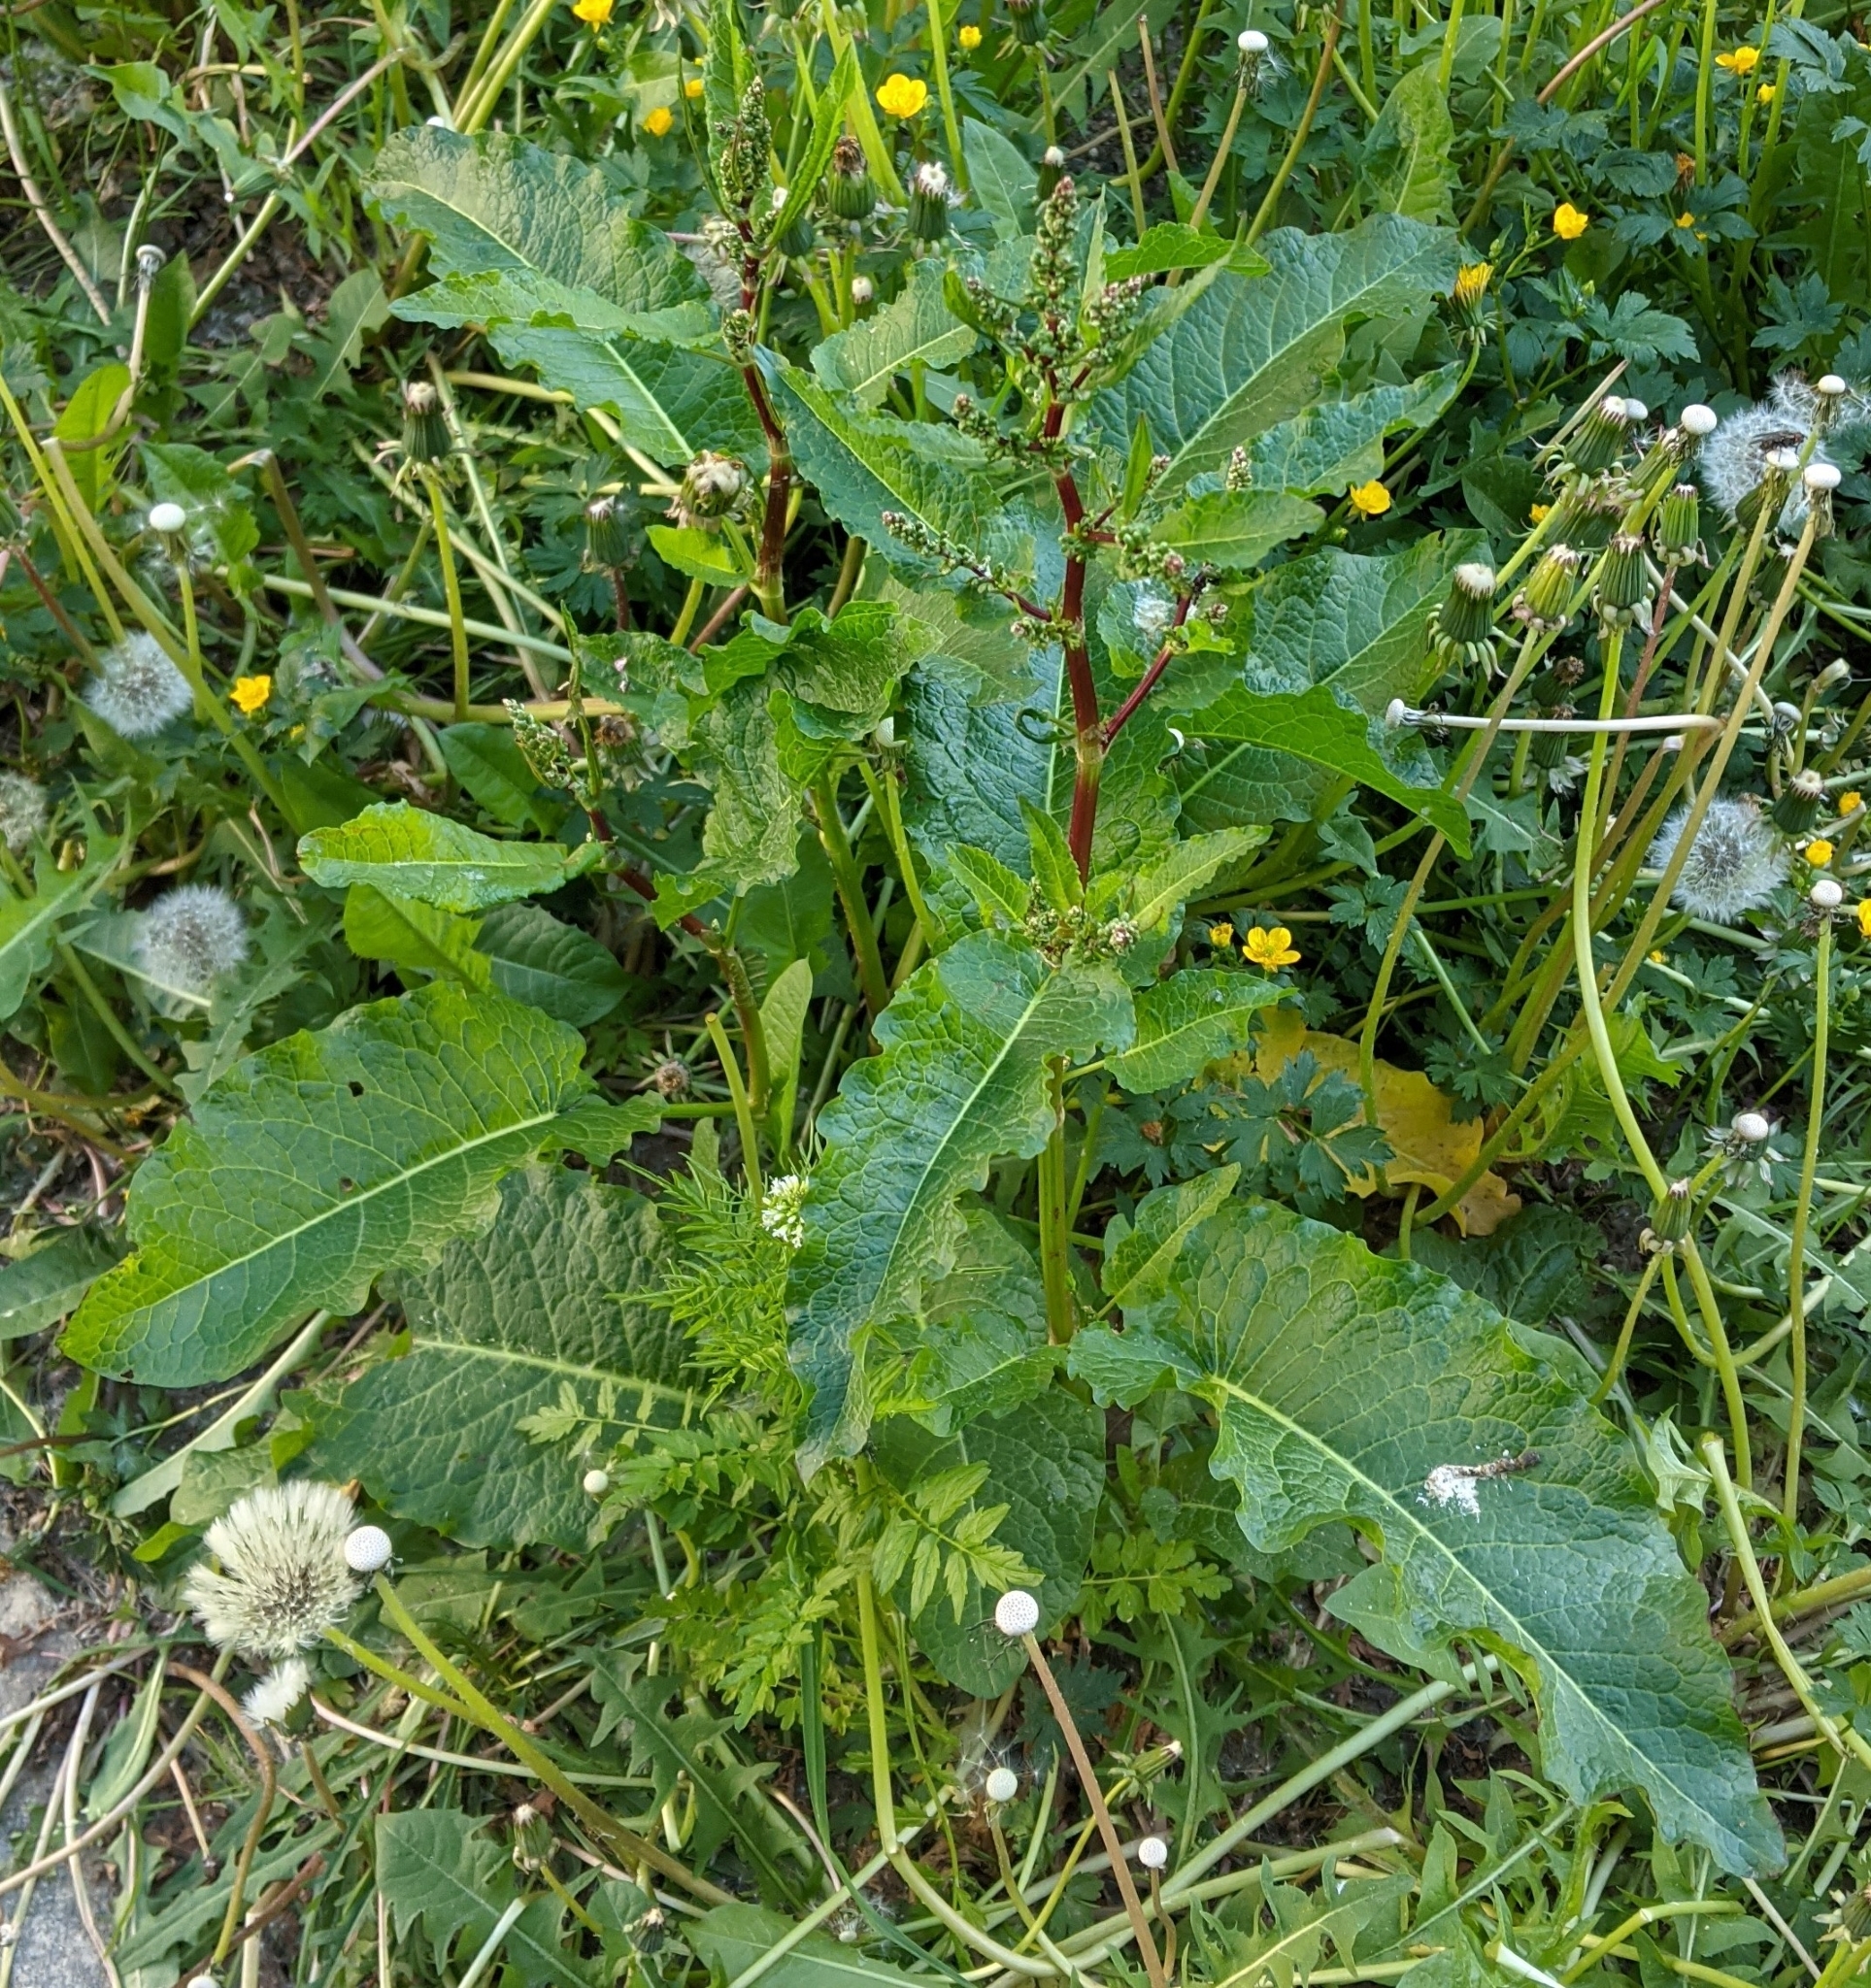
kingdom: Plantae
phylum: Tracheophyta
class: Magnoliopsida
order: Caryophyllales
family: Polygonaceae
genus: Rumex
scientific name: Rumex obtusifolius
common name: Bitter dock
